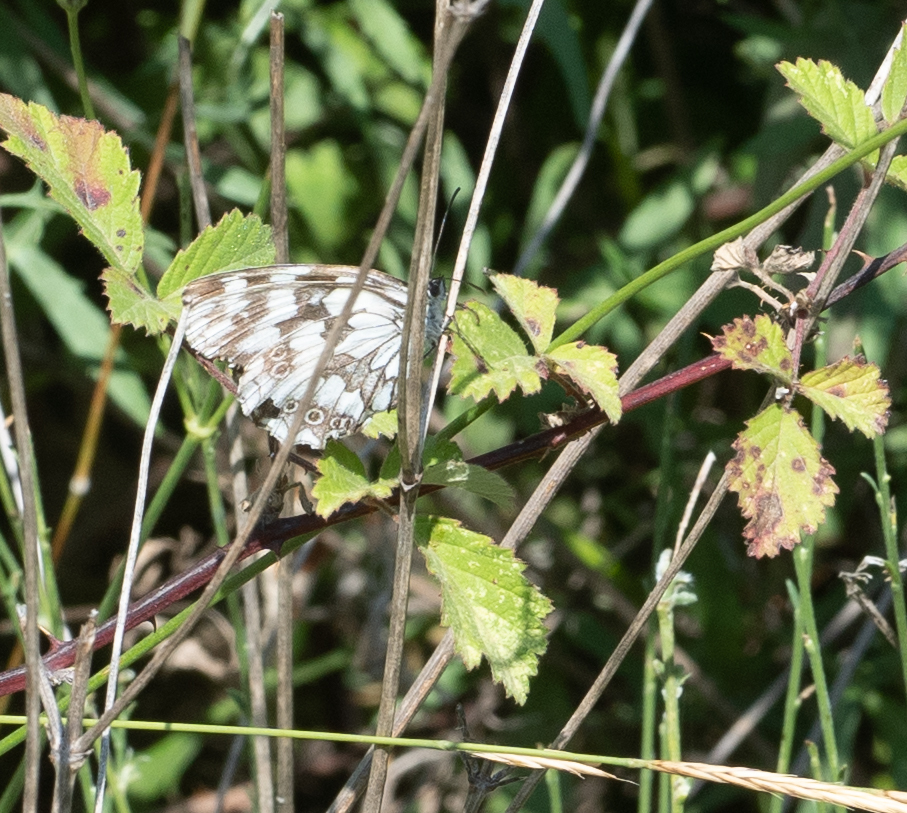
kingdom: Animalia
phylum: Arthropoda
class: Insecta
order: Lepidoptera
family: Nymphalidae
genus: Melanargia
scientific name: Melanargia galathea
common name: Marbled white
